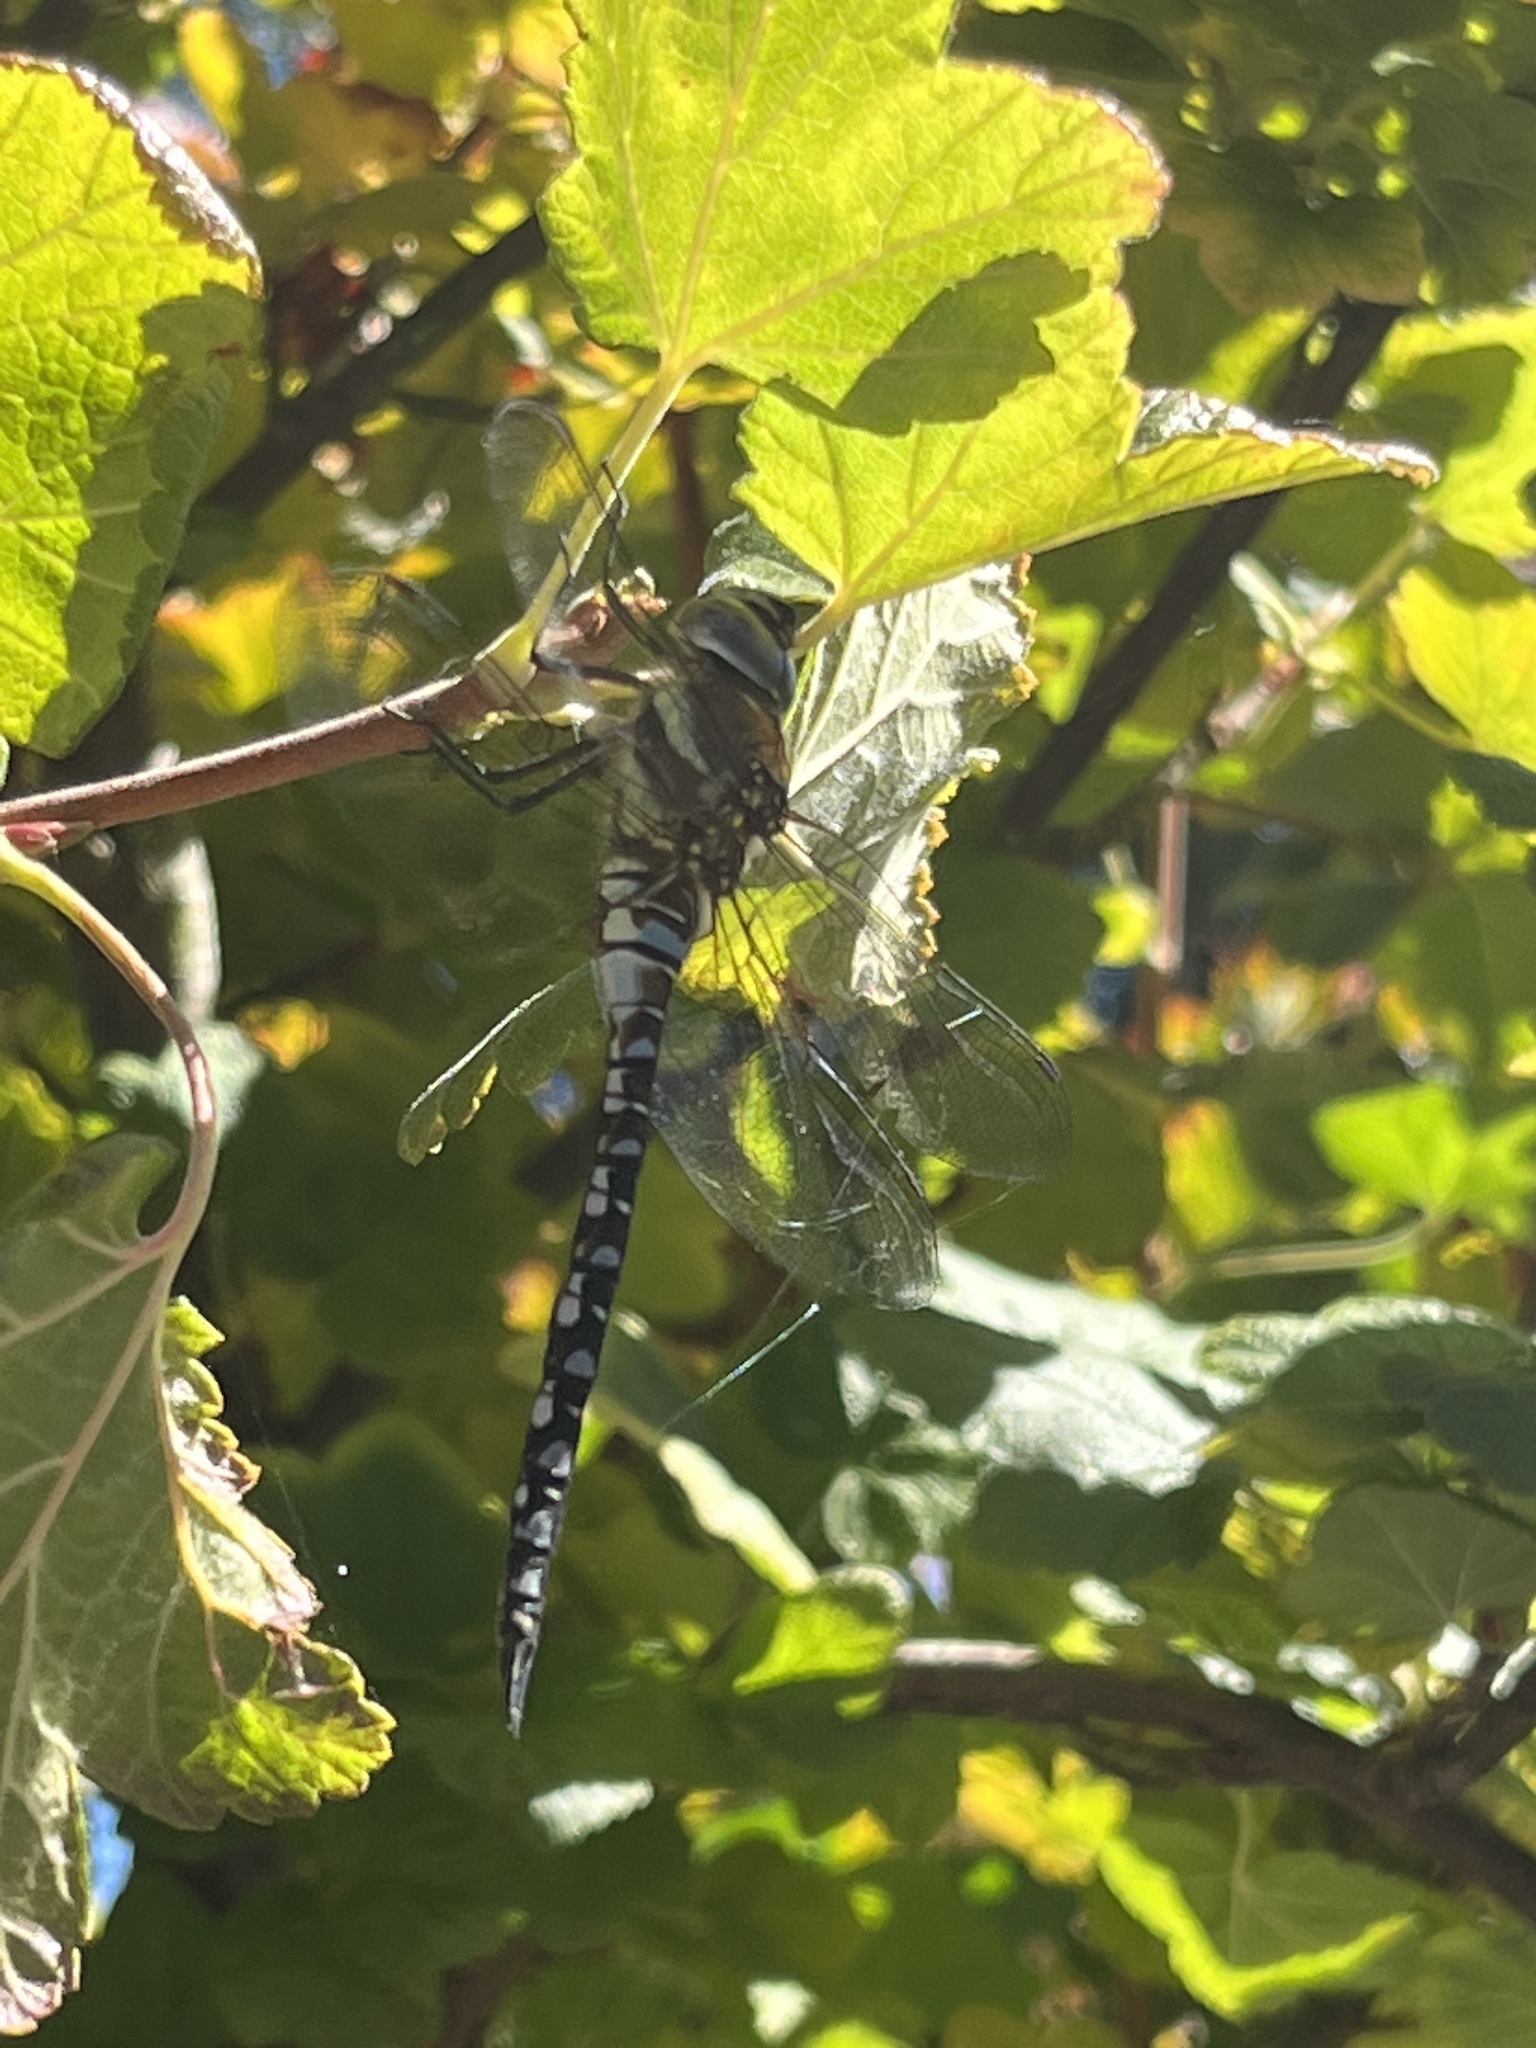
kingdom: Animalia
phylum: Arthropoda
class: Insecta
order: Odonata
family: Aeshnidae
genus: Aeshna
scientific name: Aeshna mixta
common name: Migrant hawker
